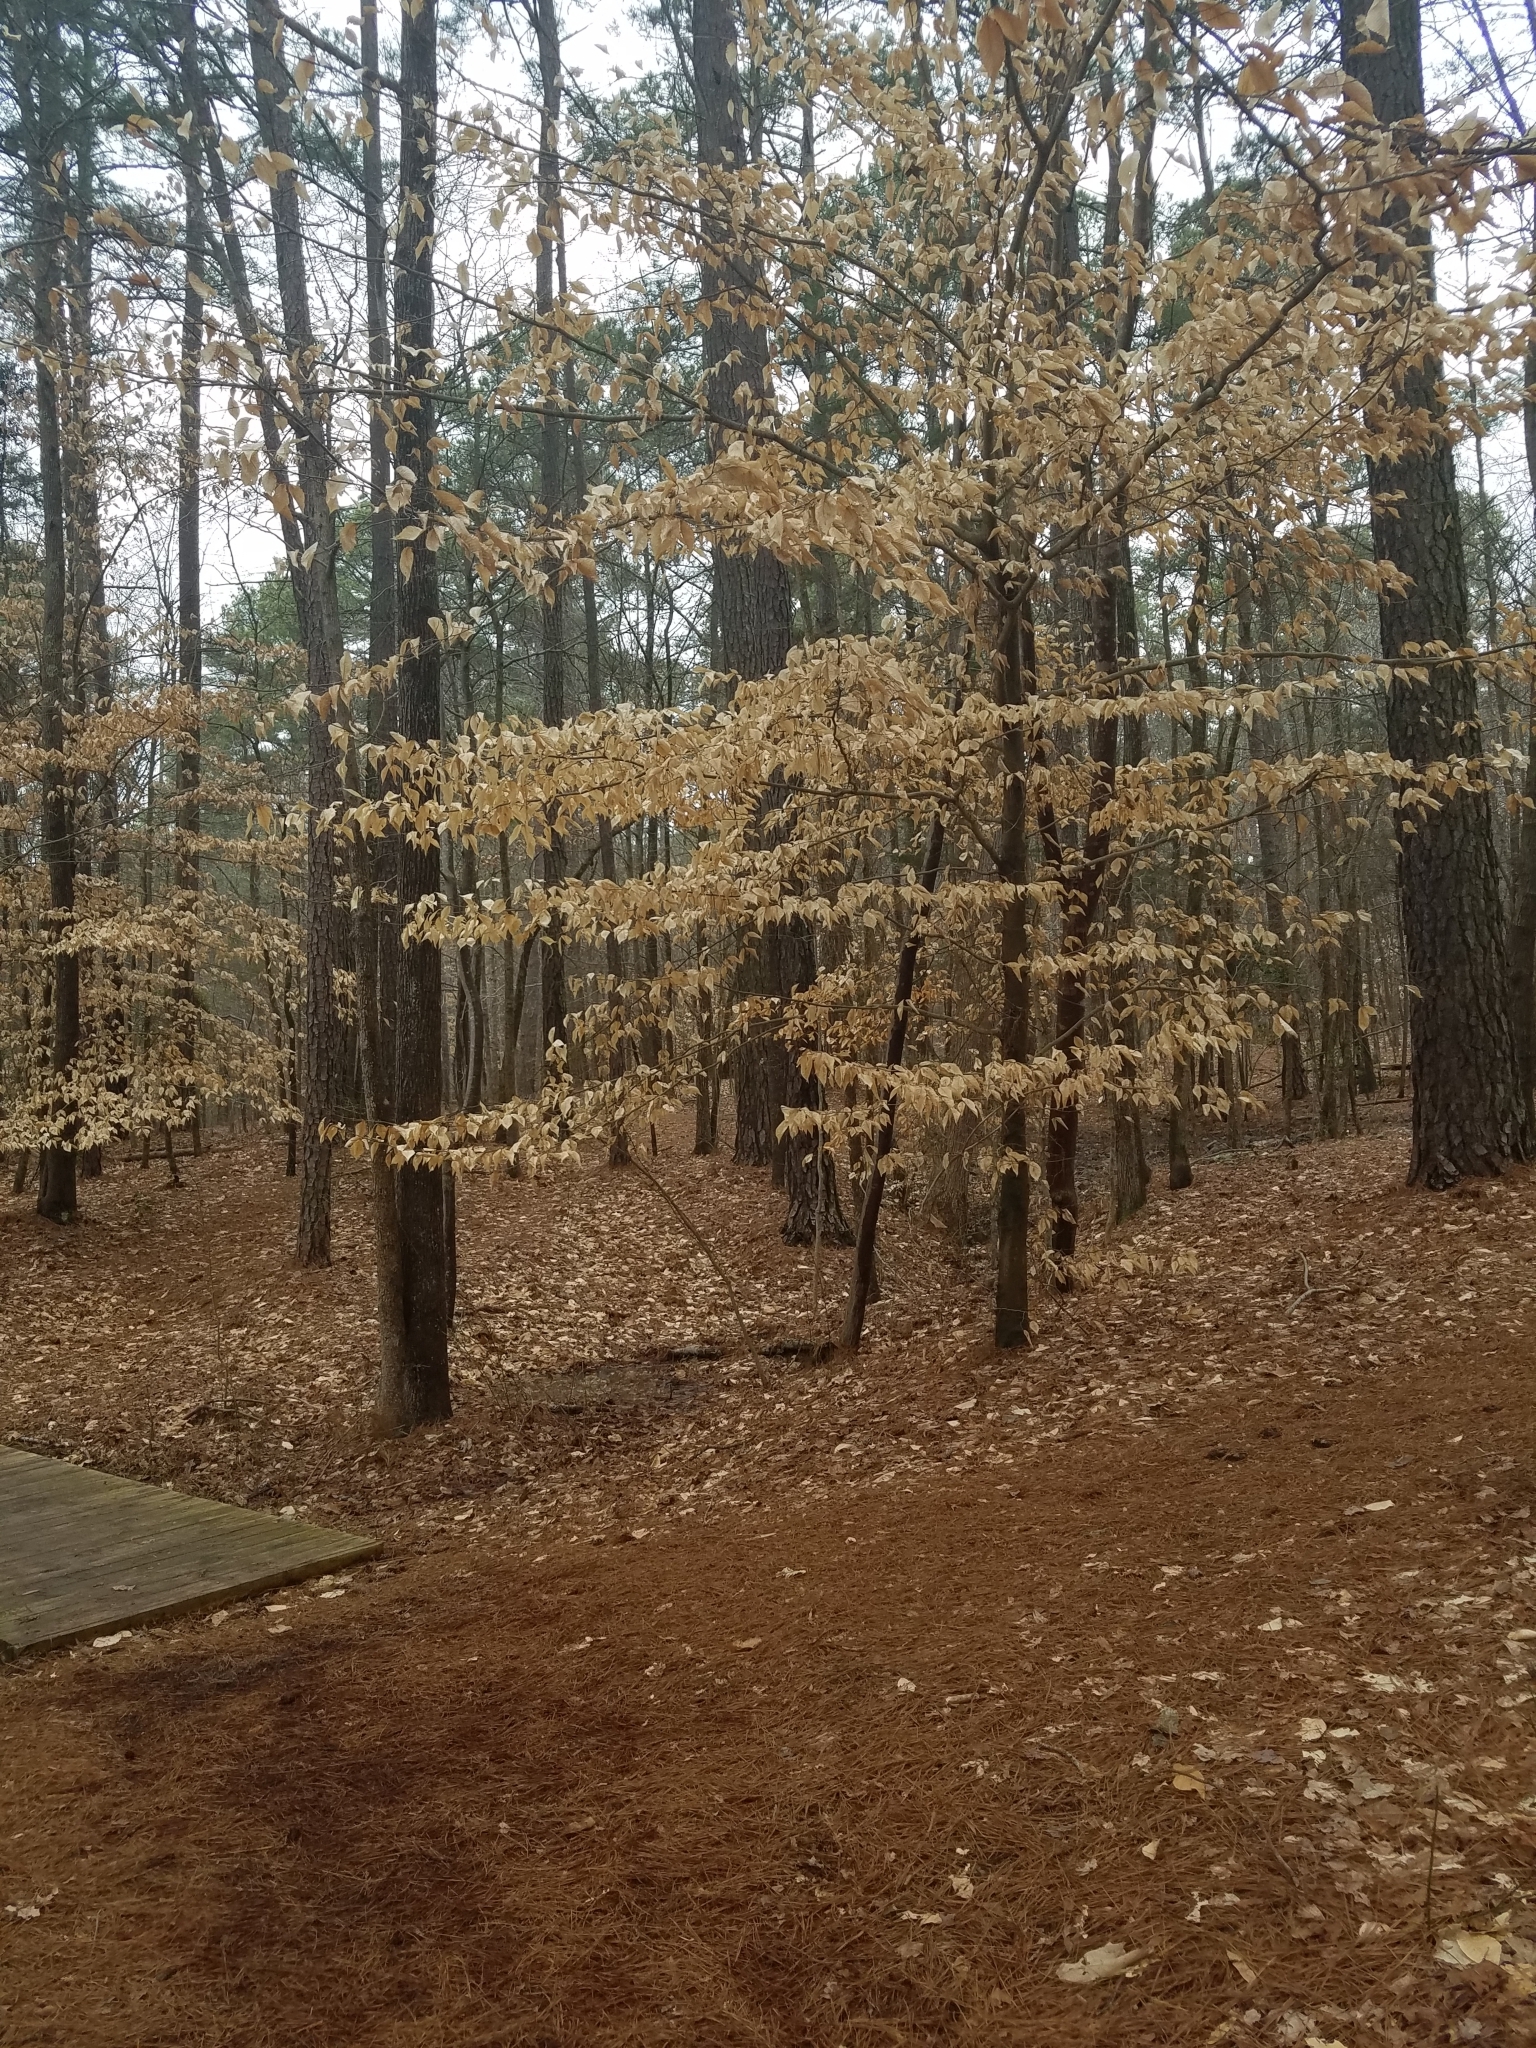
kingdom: Plantae
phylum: Tracheophyta
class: Magnoliopsida
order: Fagales
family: Fagaceae
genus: Fagus
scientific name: Fagus grandifolia
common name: American beech
